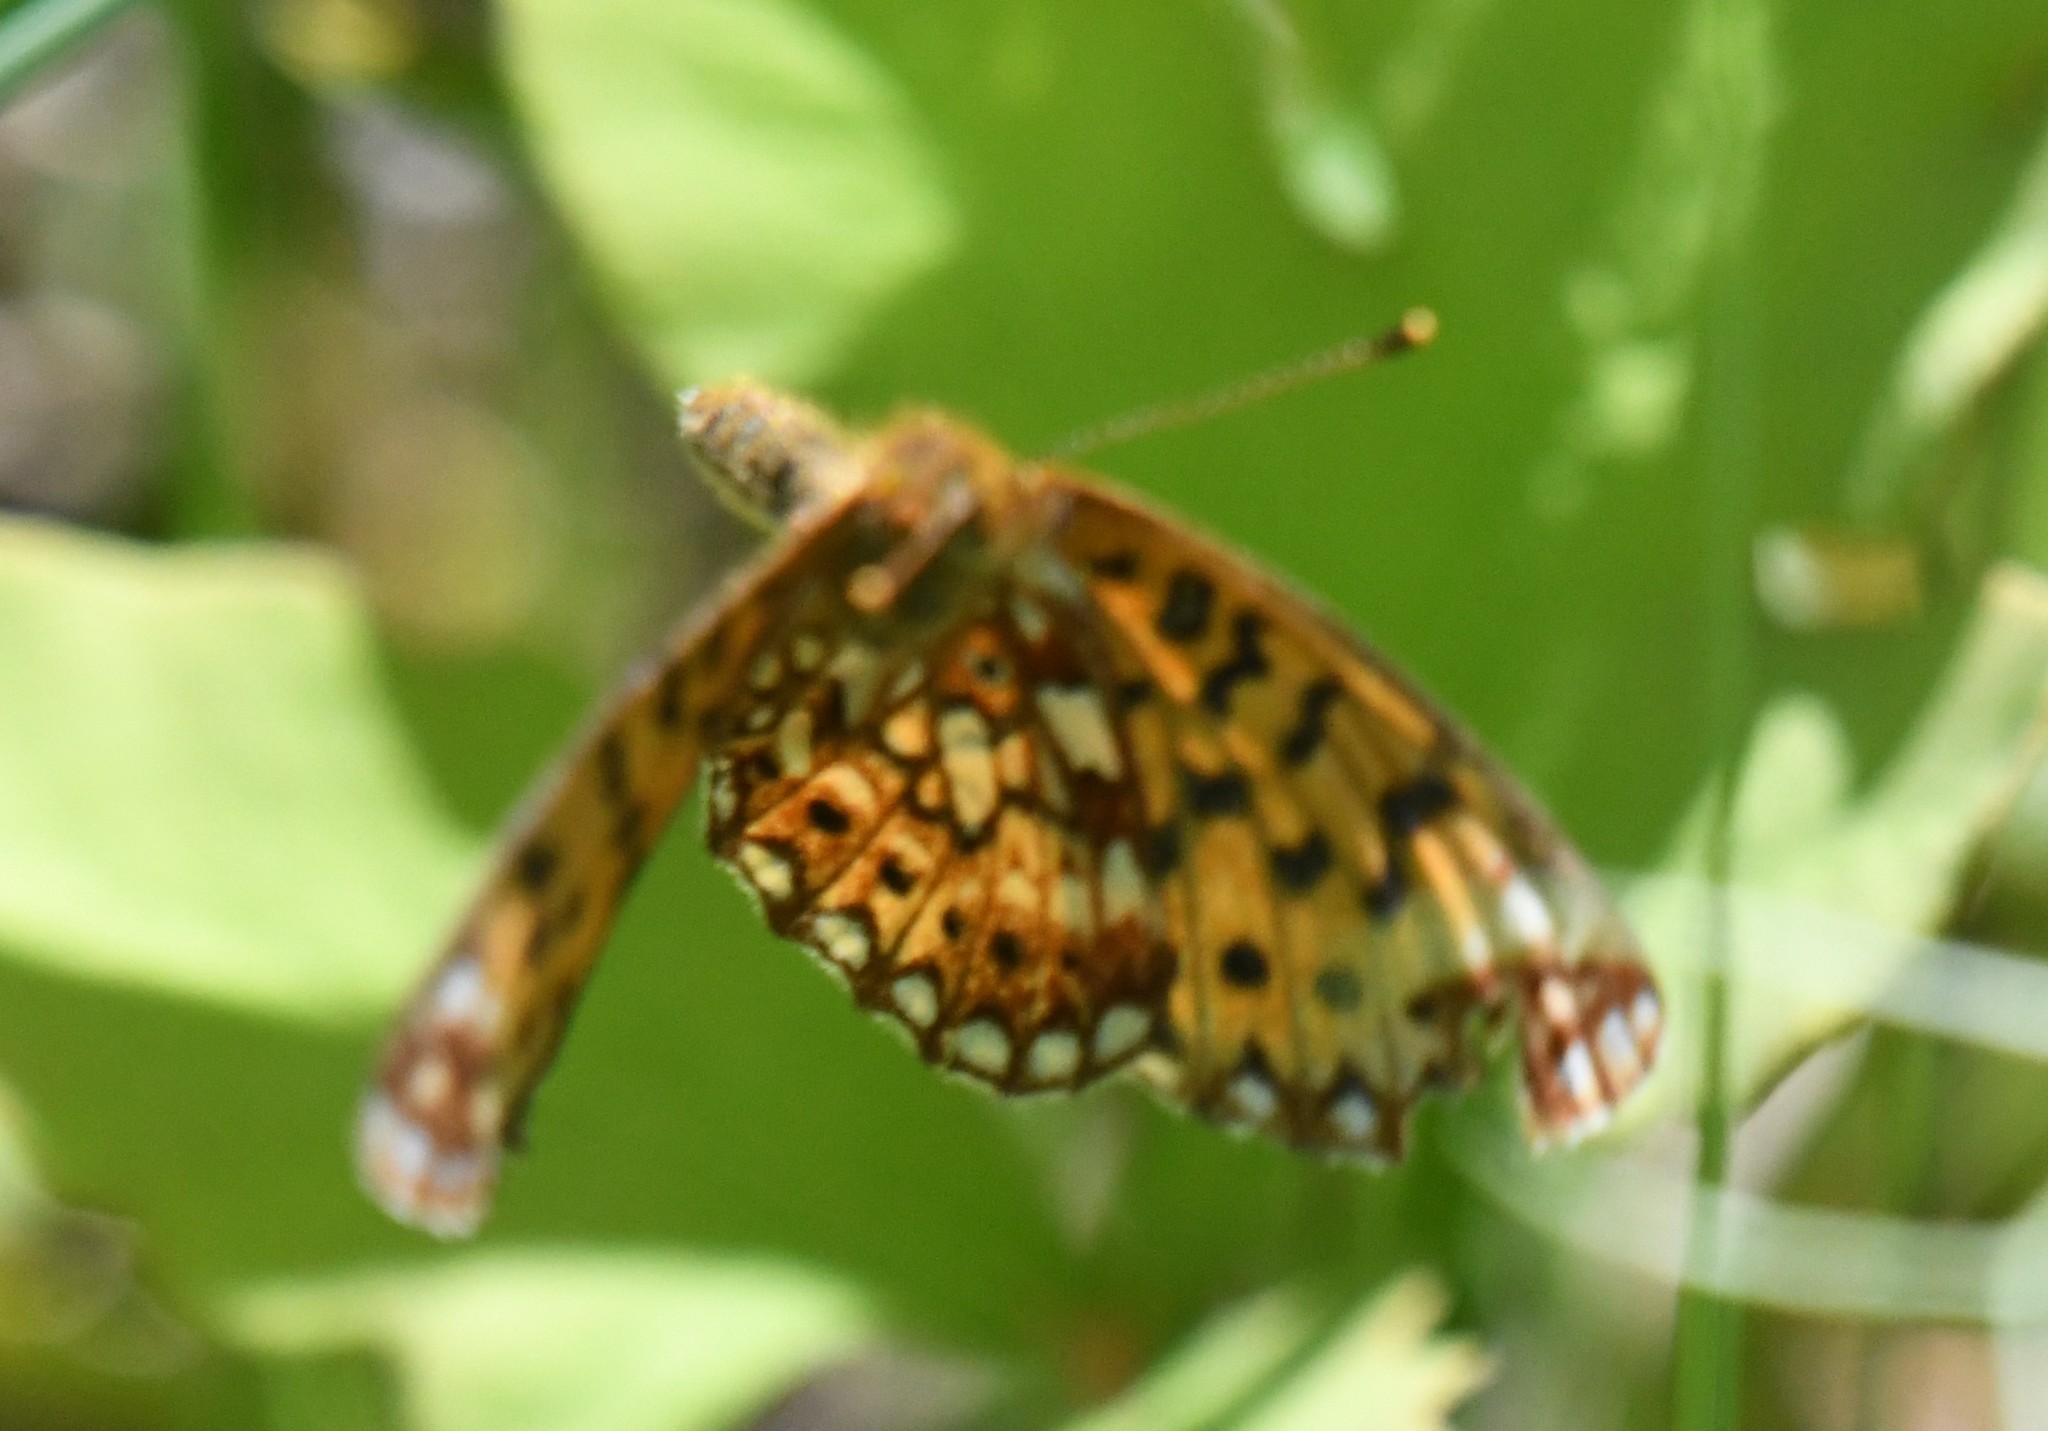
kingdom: Animalia
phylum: Arthropoda
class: Insecta
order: Lepidoptera
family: Nymphalidae
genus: Boloria
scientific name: Boloria
